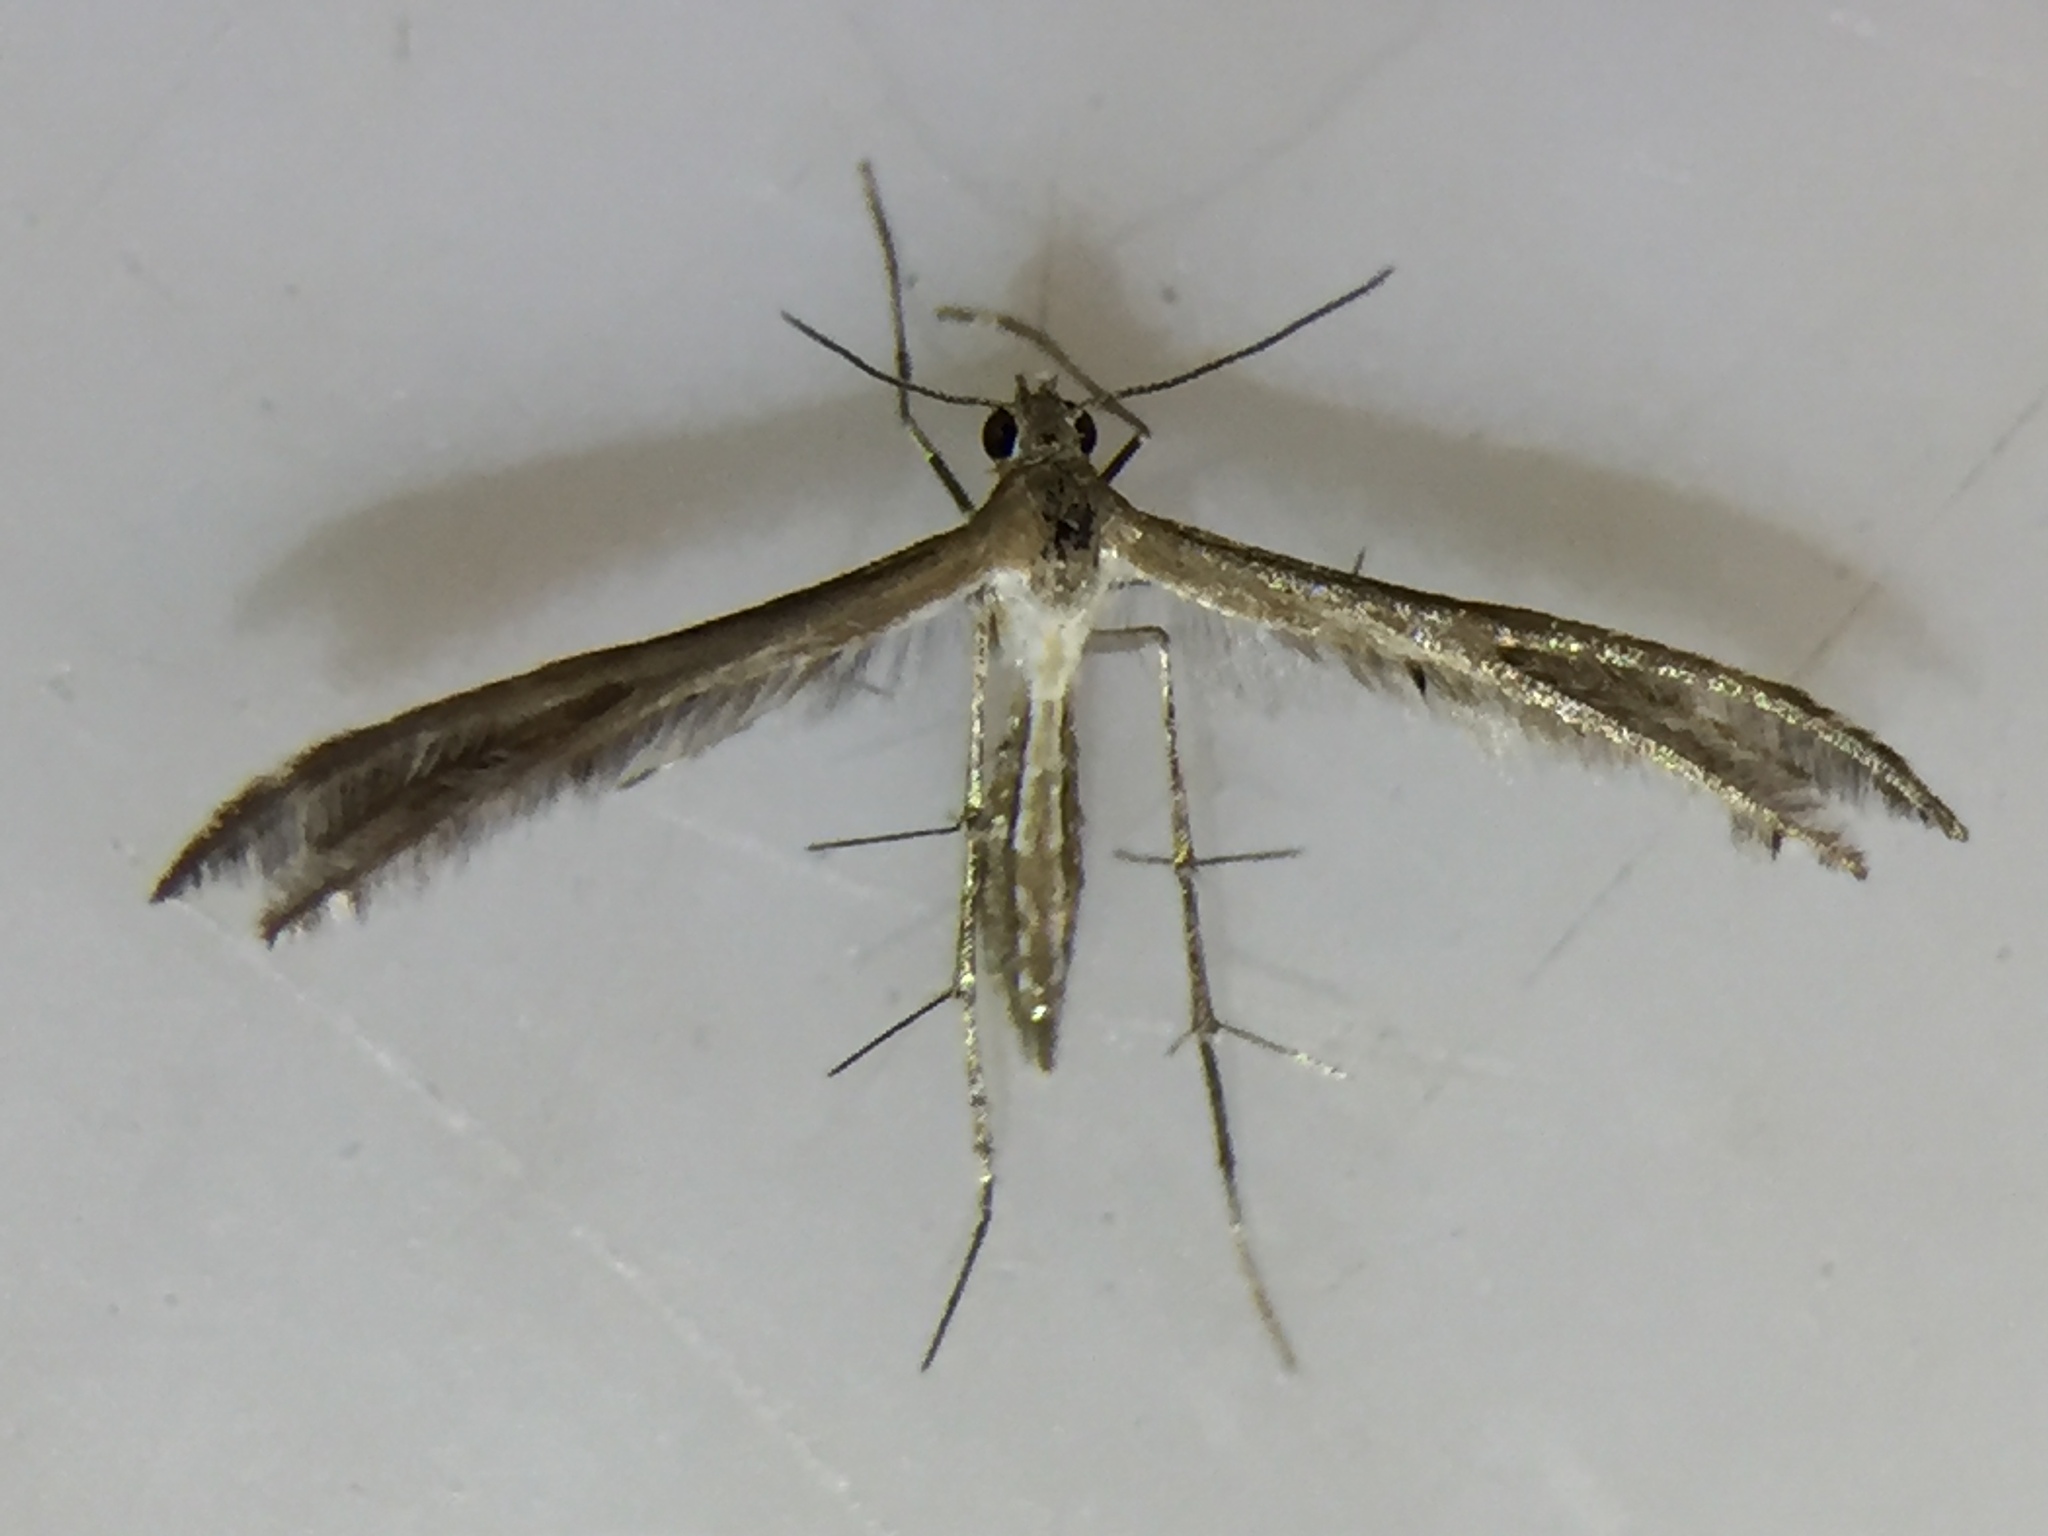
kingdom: Animalia
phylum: Arthropoda
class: Insecta
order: Lepidoptera
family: Pterophoridae
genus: Stangeia
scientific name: Stangeia xerodes
